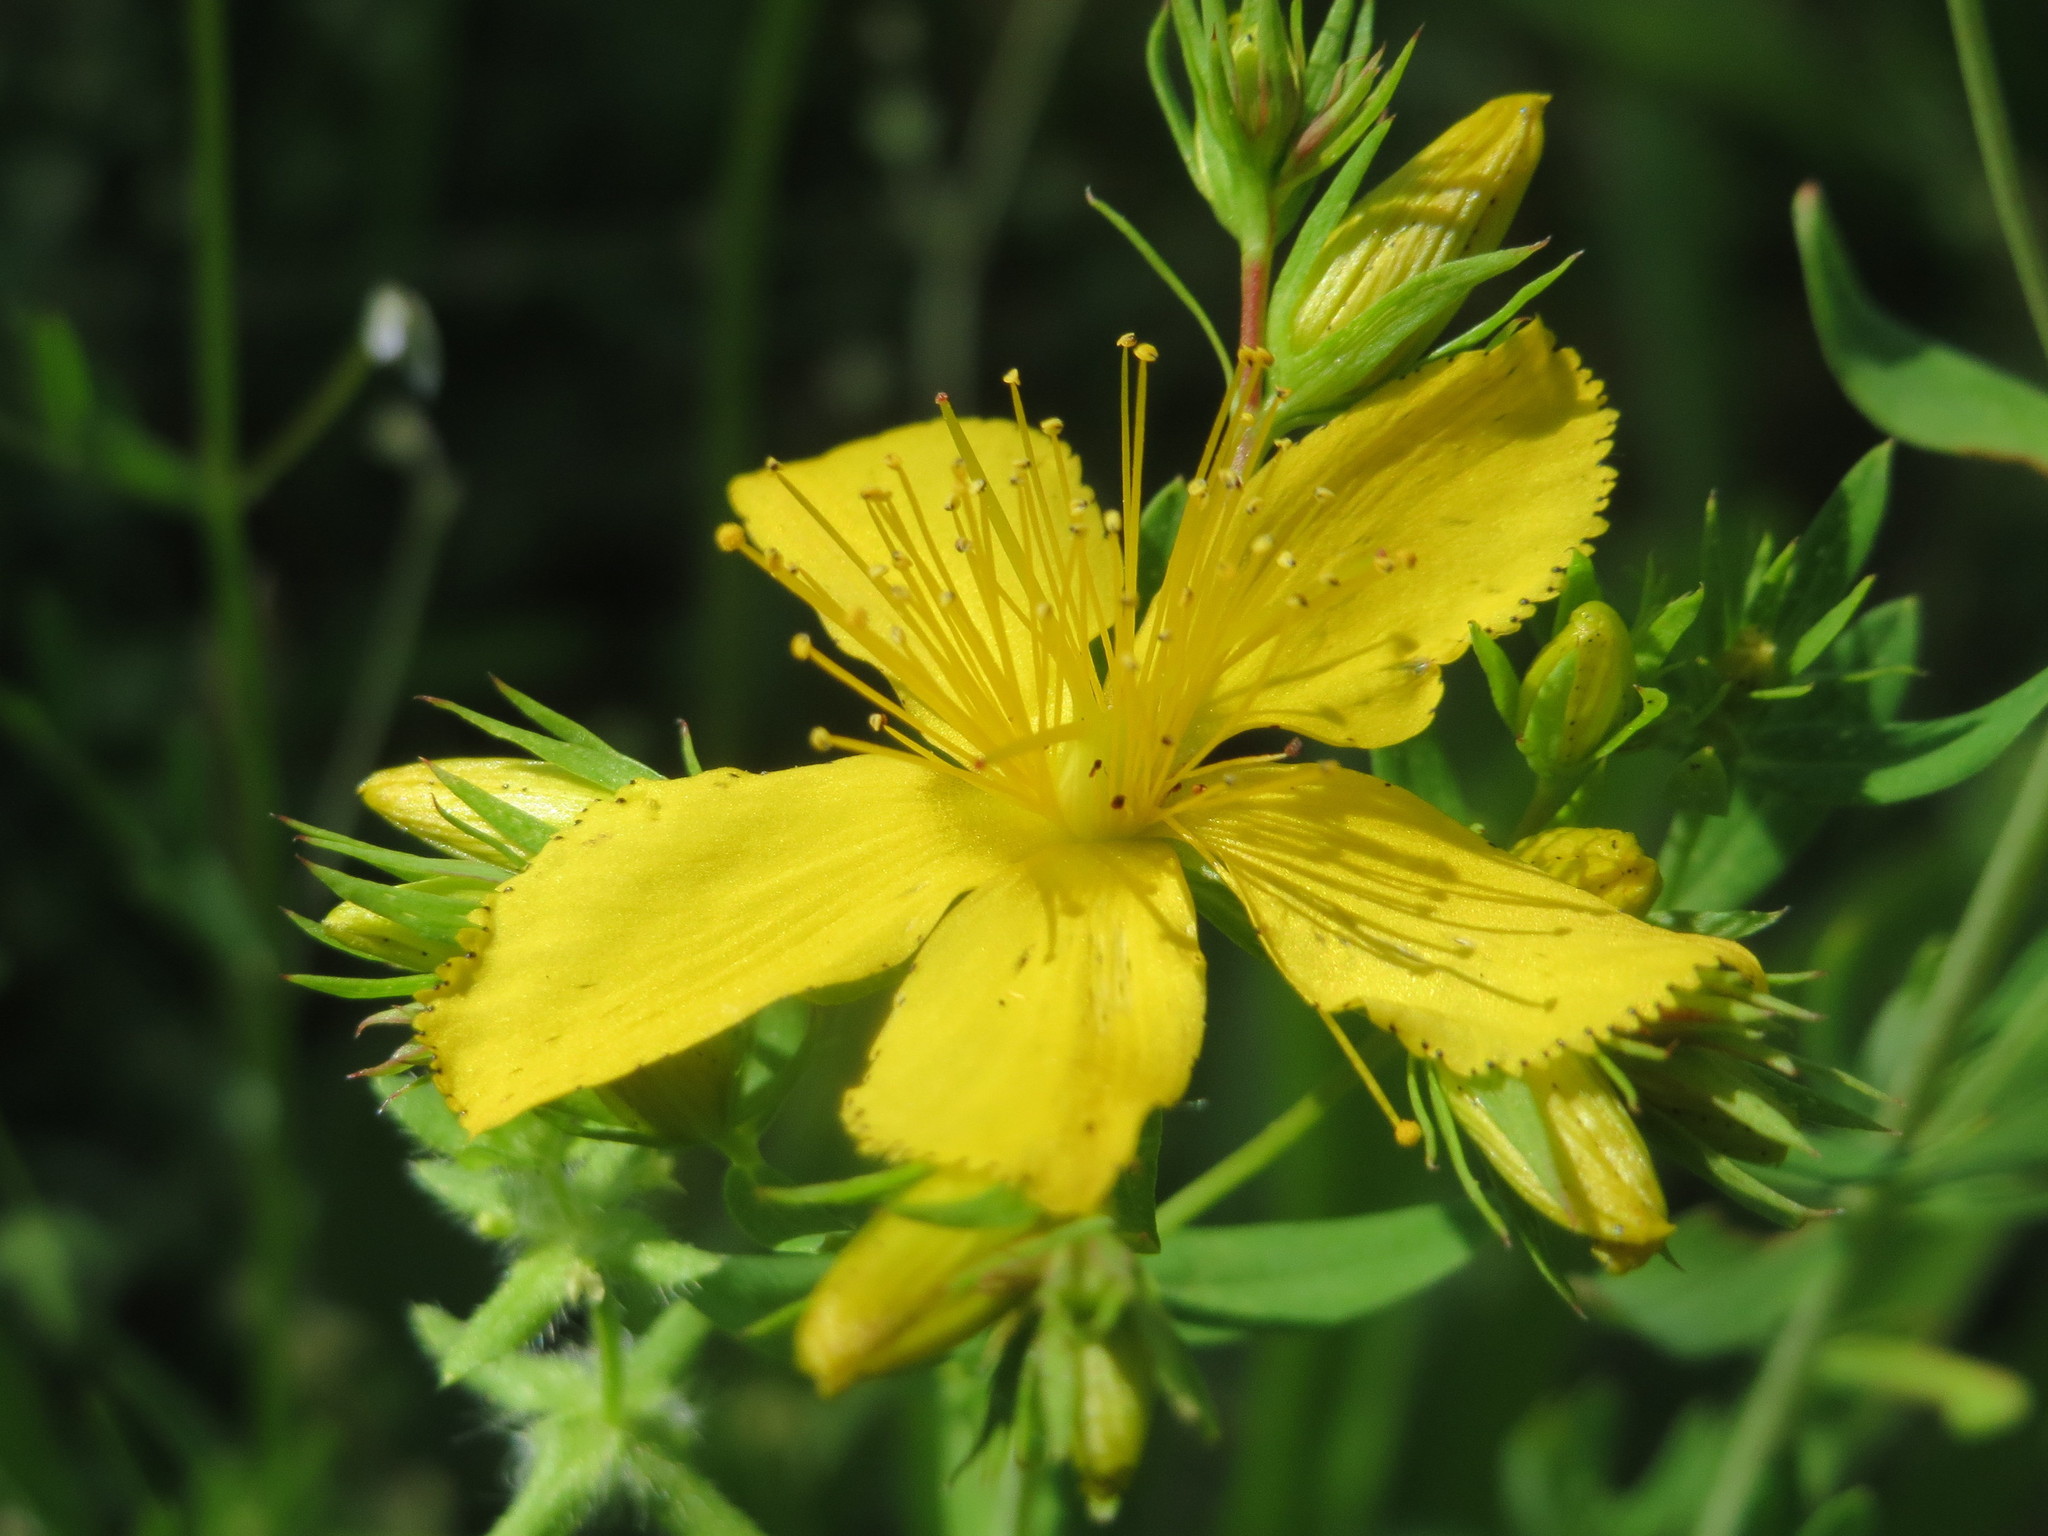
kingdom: Plantae
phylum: Tracheophyta
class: Magnoliopsida
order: Malpighiales
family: Hypericaceae
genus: Hypericum
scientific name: Hypericum perforatum
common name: Common st. johnswort
